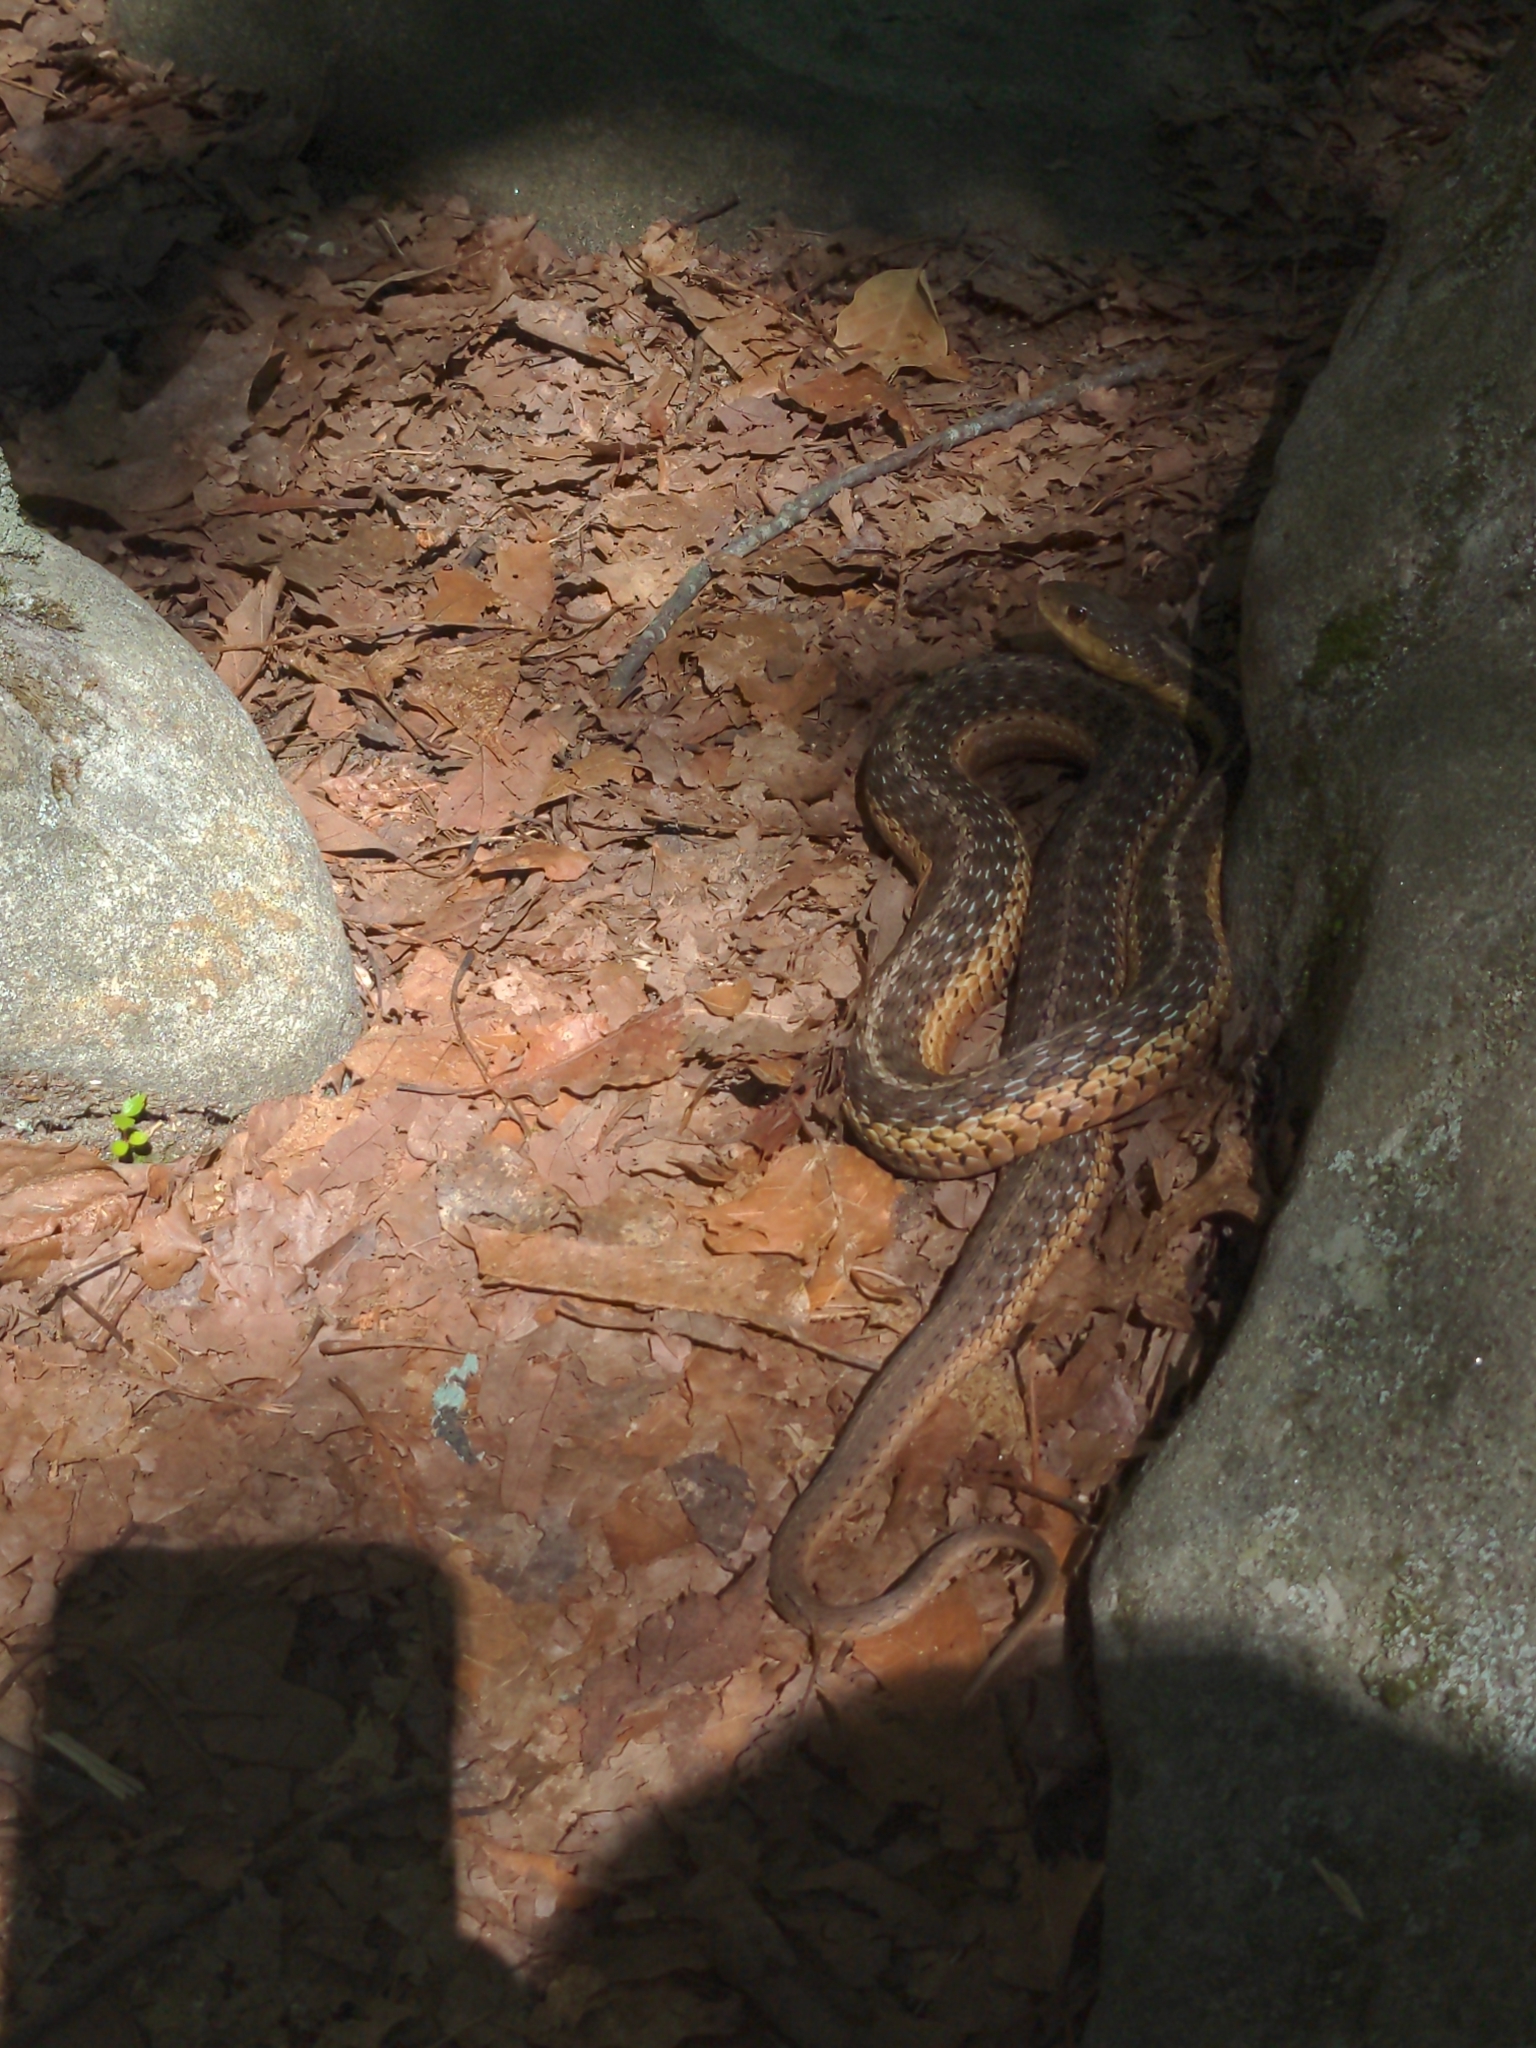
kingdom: Animalia
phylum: Chordata
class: Squamata
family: Colubridae
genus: Thamnophis
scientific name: Thamnophis sirtalis
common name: Common garter snake
